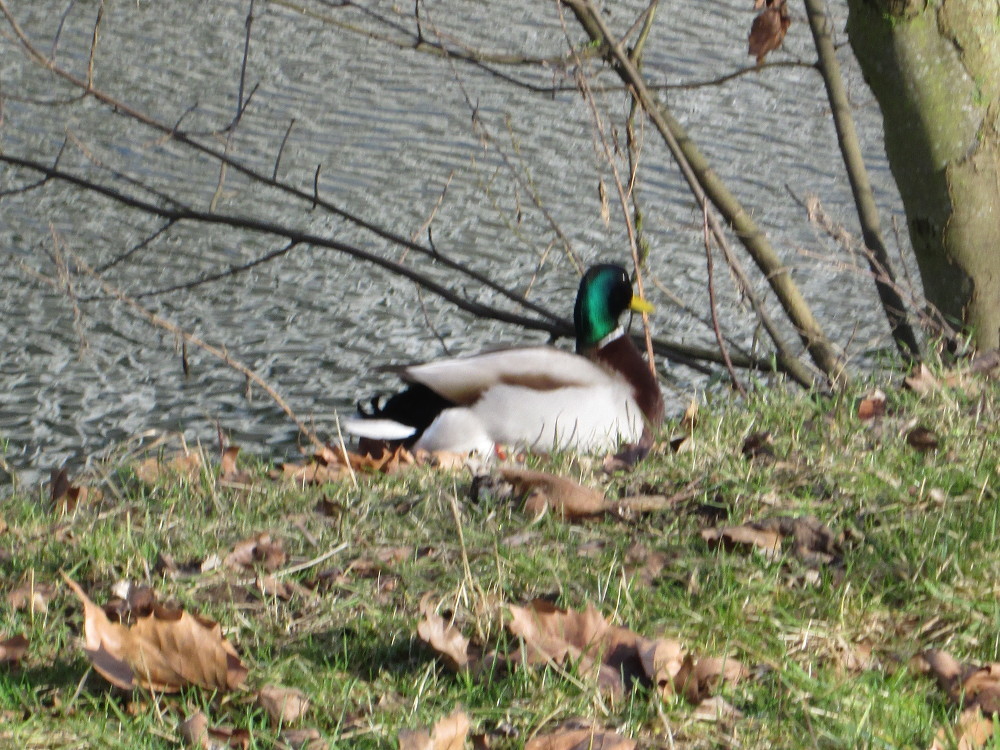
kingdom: Animalia
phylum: Chordata
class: Aves
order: Anseriformes
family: Anatidae
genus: Anas
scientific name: Anas platyrhynchos
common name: Mallard
